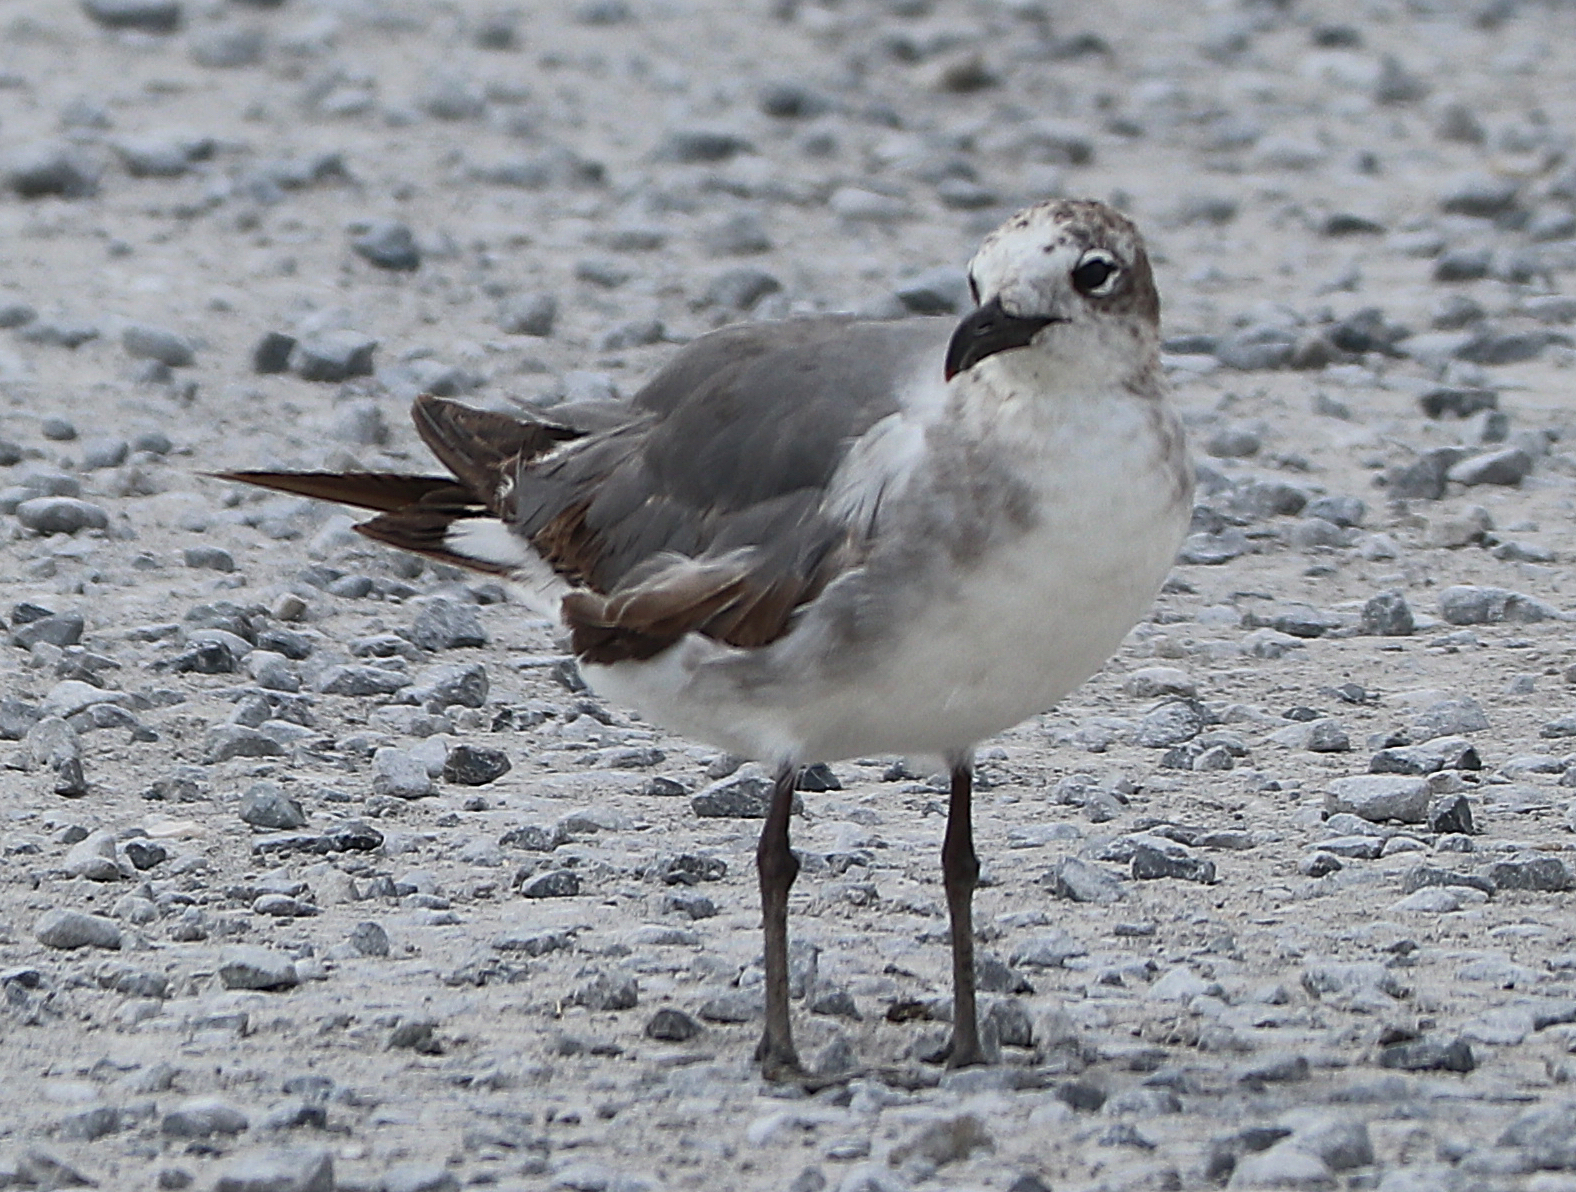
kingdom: Animalia
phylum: Chordata
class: Aves
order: Charadriiformes
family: Laridae
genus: Leucophaeus
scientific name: Leucophaeus atricilla
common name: Laughing gull
